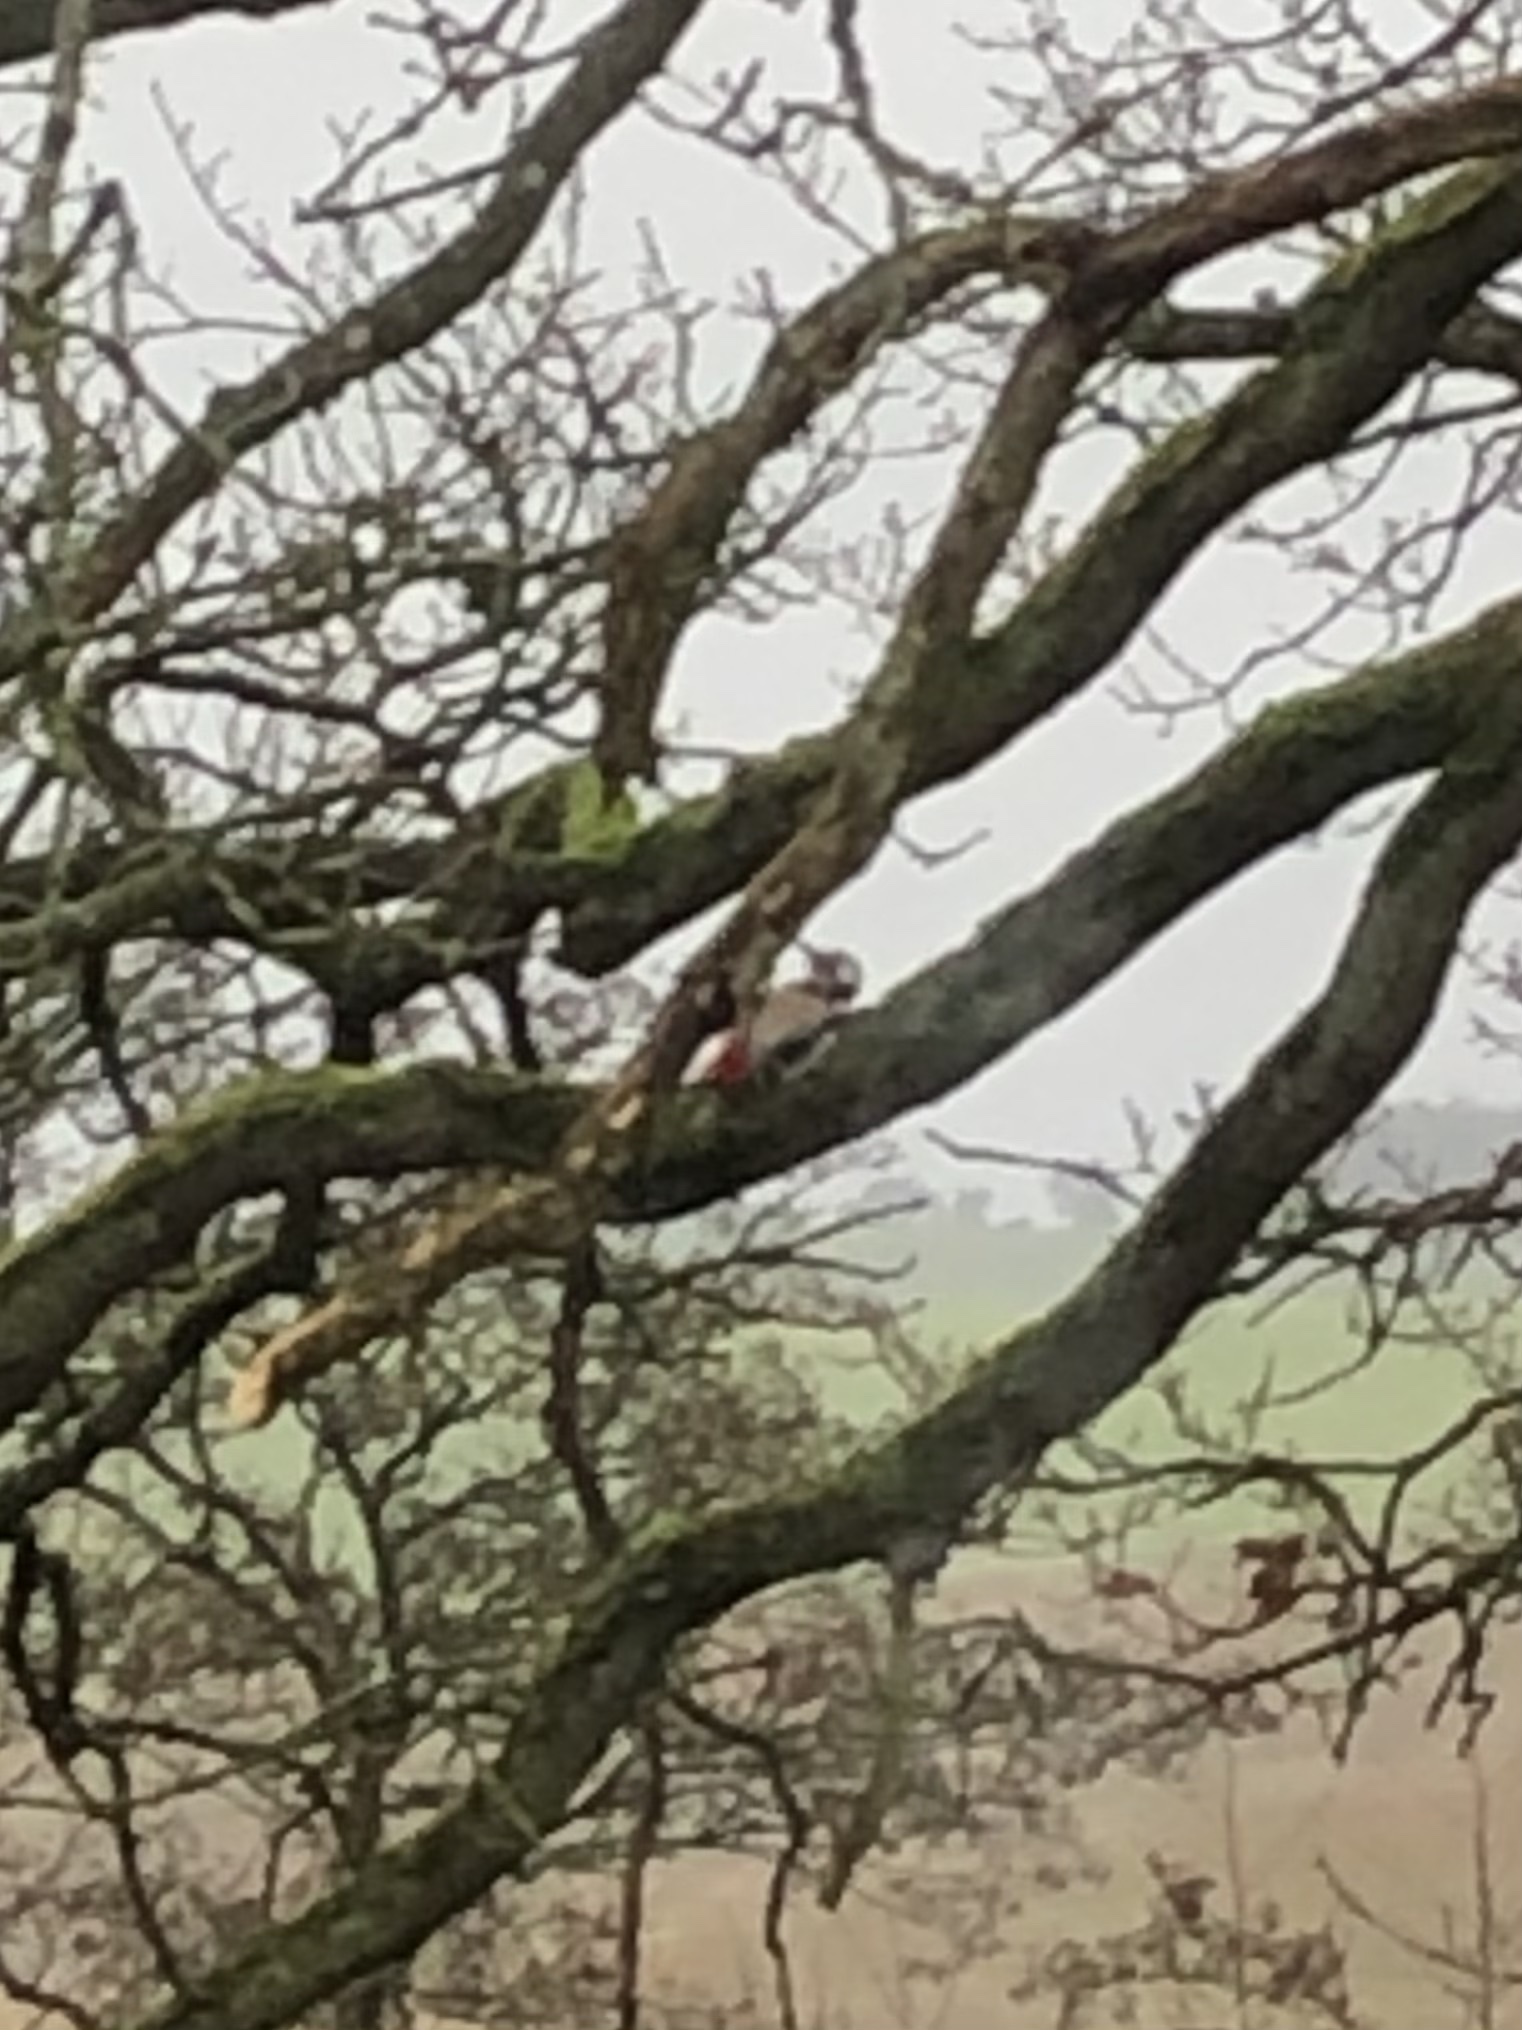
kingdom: Animalia
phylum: Chordata
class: Aves
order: Piciformes
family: Picidae
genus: Dendrocopos
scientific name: Dendrocopos major
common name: Great spotted woodpecker
